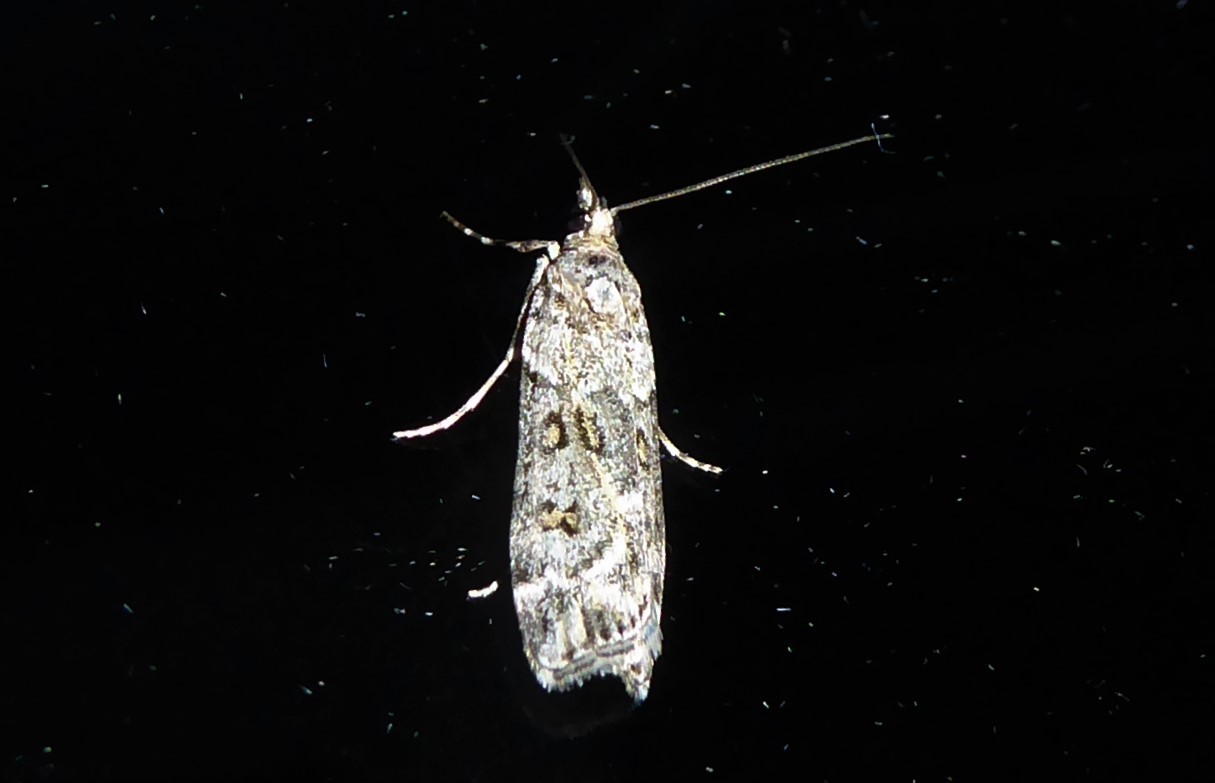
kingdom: Animalia
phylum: Arthropoda
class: Insecta
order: Lepidoptera
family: Crambidae
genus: Eudonia
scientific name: Eudonia diphtheralis
